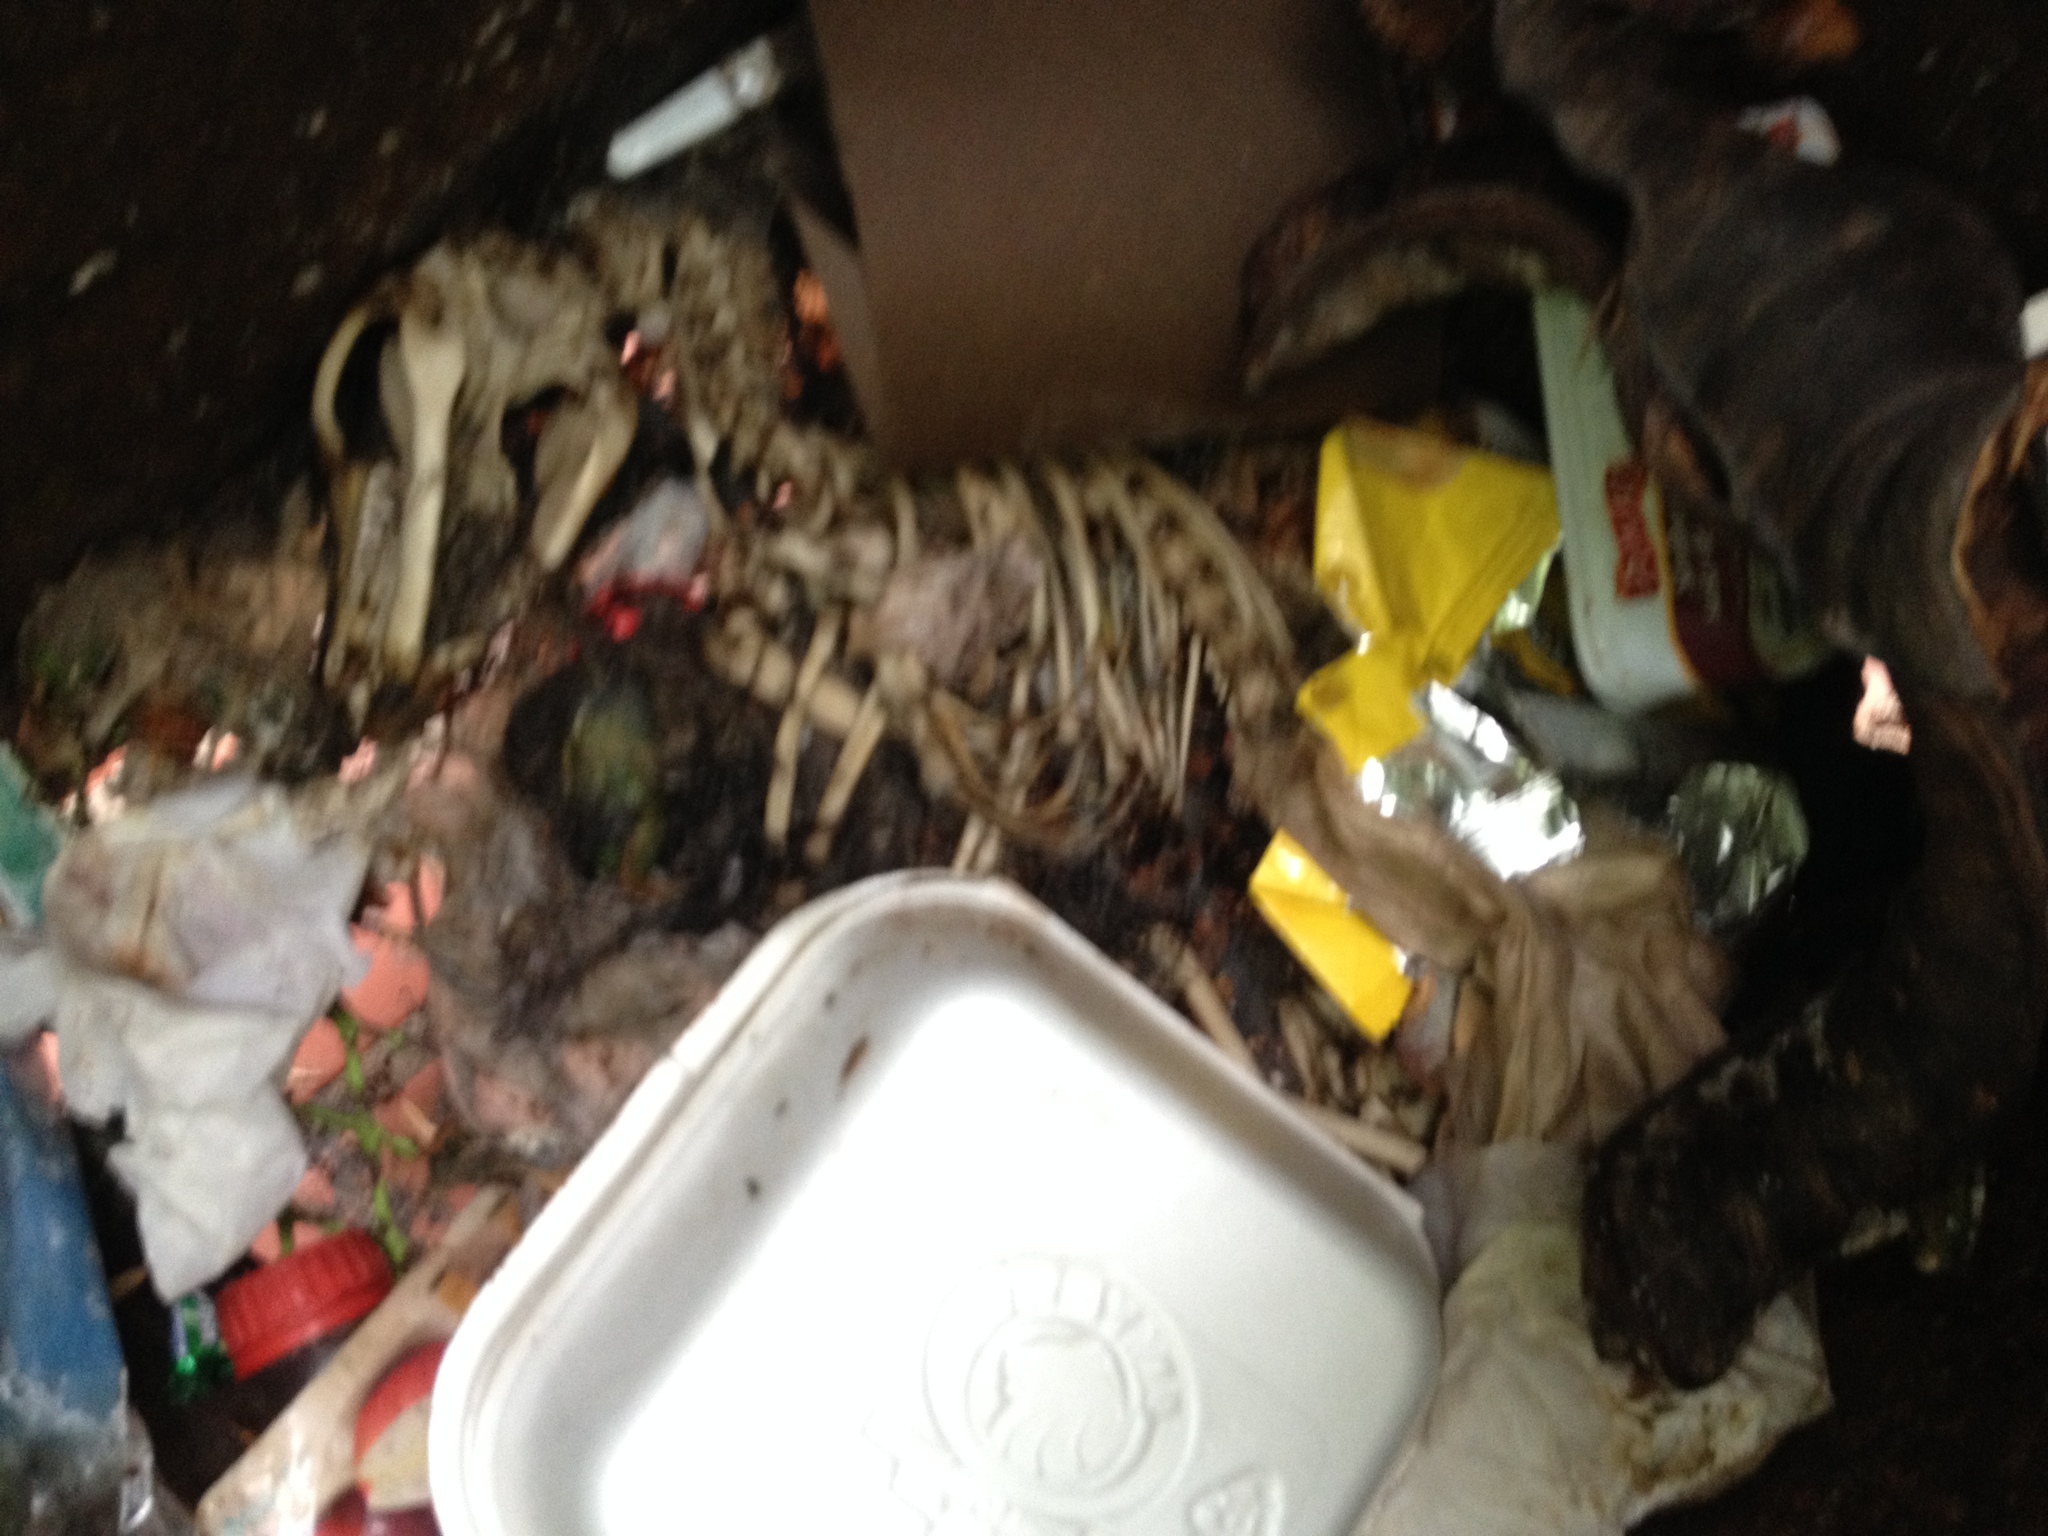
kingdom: Animalia
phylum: Chordata
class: Mammalia
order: Didelphimorphia
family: Didelphidae
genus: Didelphis
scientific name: Didelphis virginiana
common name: Virginia opossum
